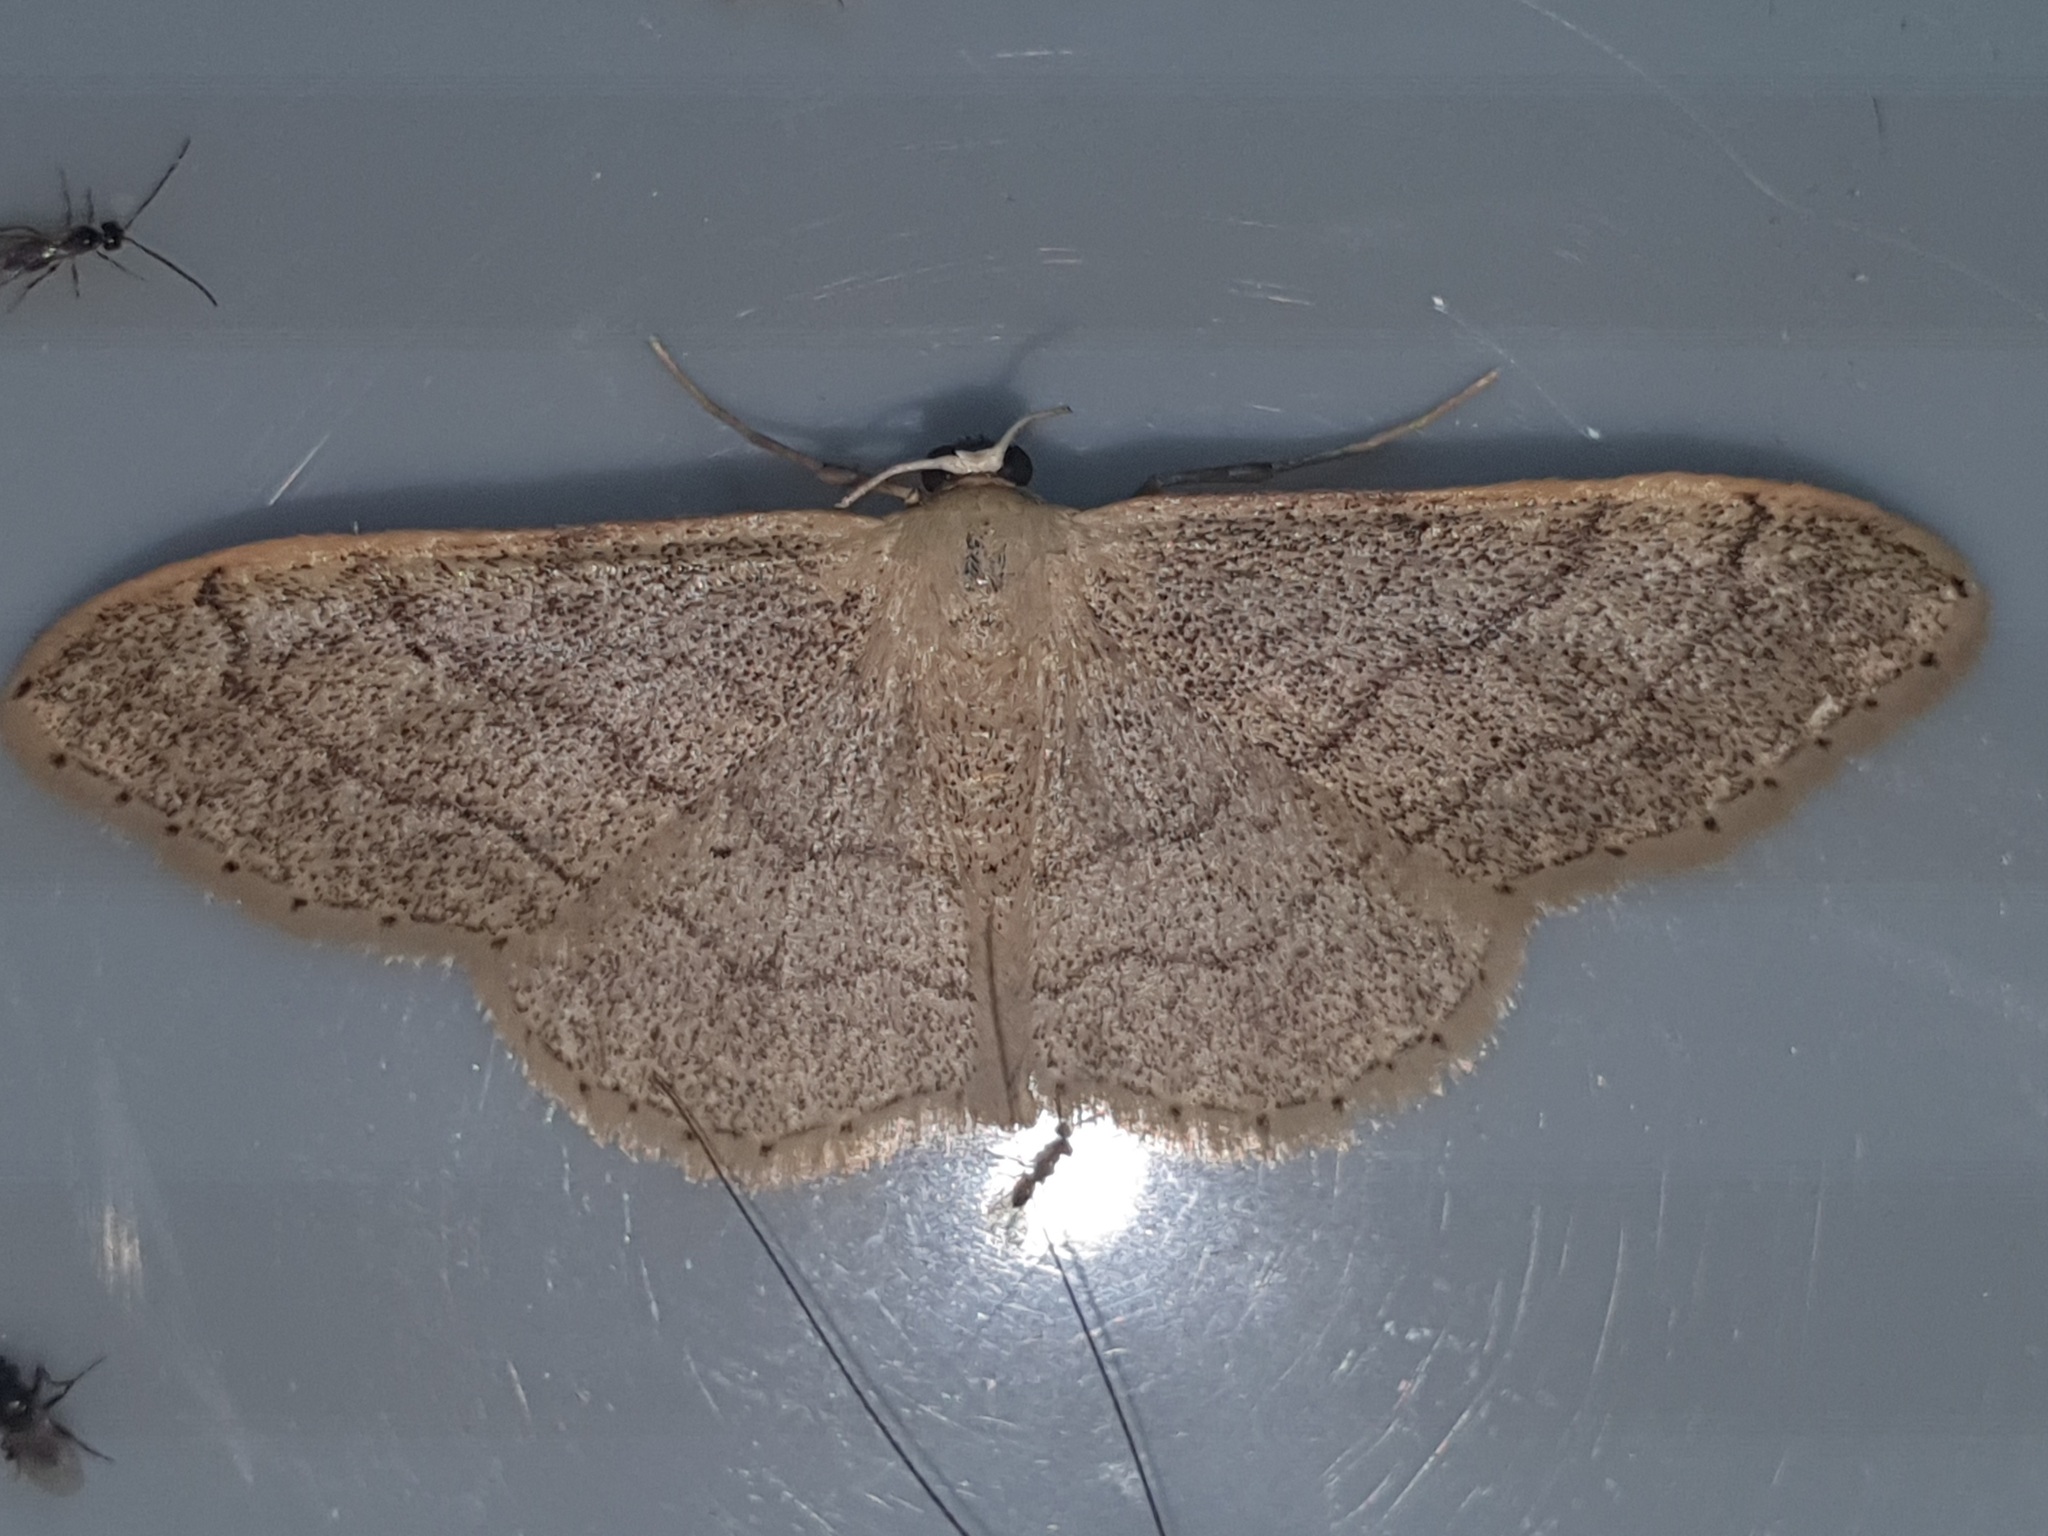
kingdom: Animalia
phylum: Arthropoda
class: Insecta
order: Lepidoptera
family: Geometridae
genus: Idaea
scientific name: Idaea aversata
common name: Riband wave
